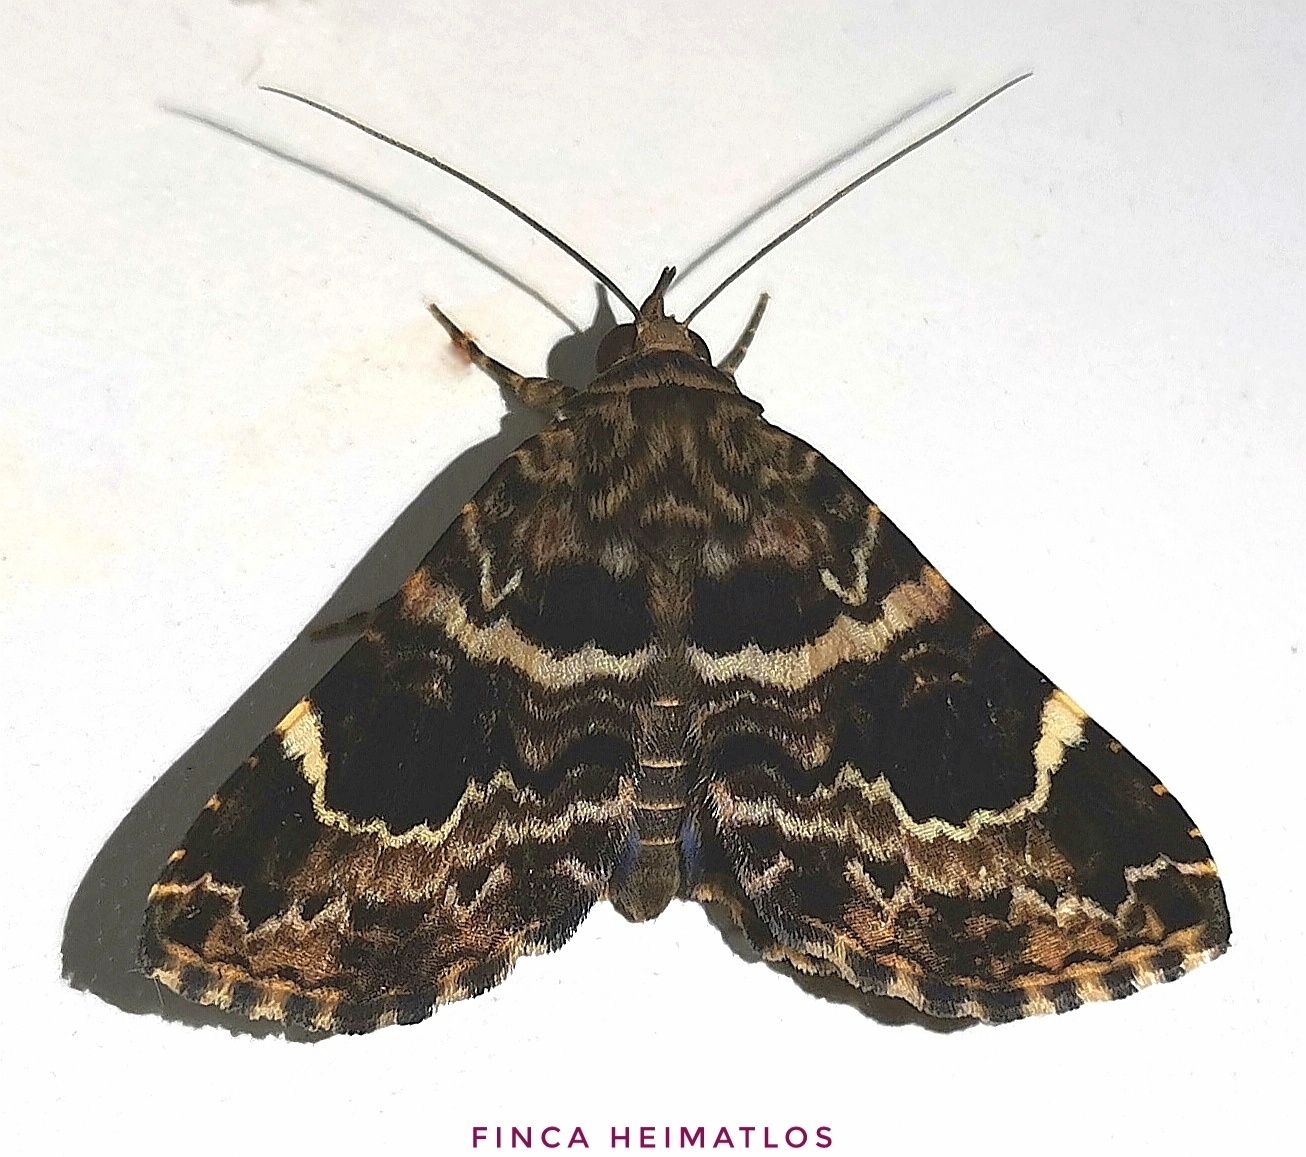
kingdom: Animalia
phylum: Arthropoda
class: Insecta
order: Lepidoptera
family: Erebidae
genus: Acolasis
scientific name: Acolasis tanais
